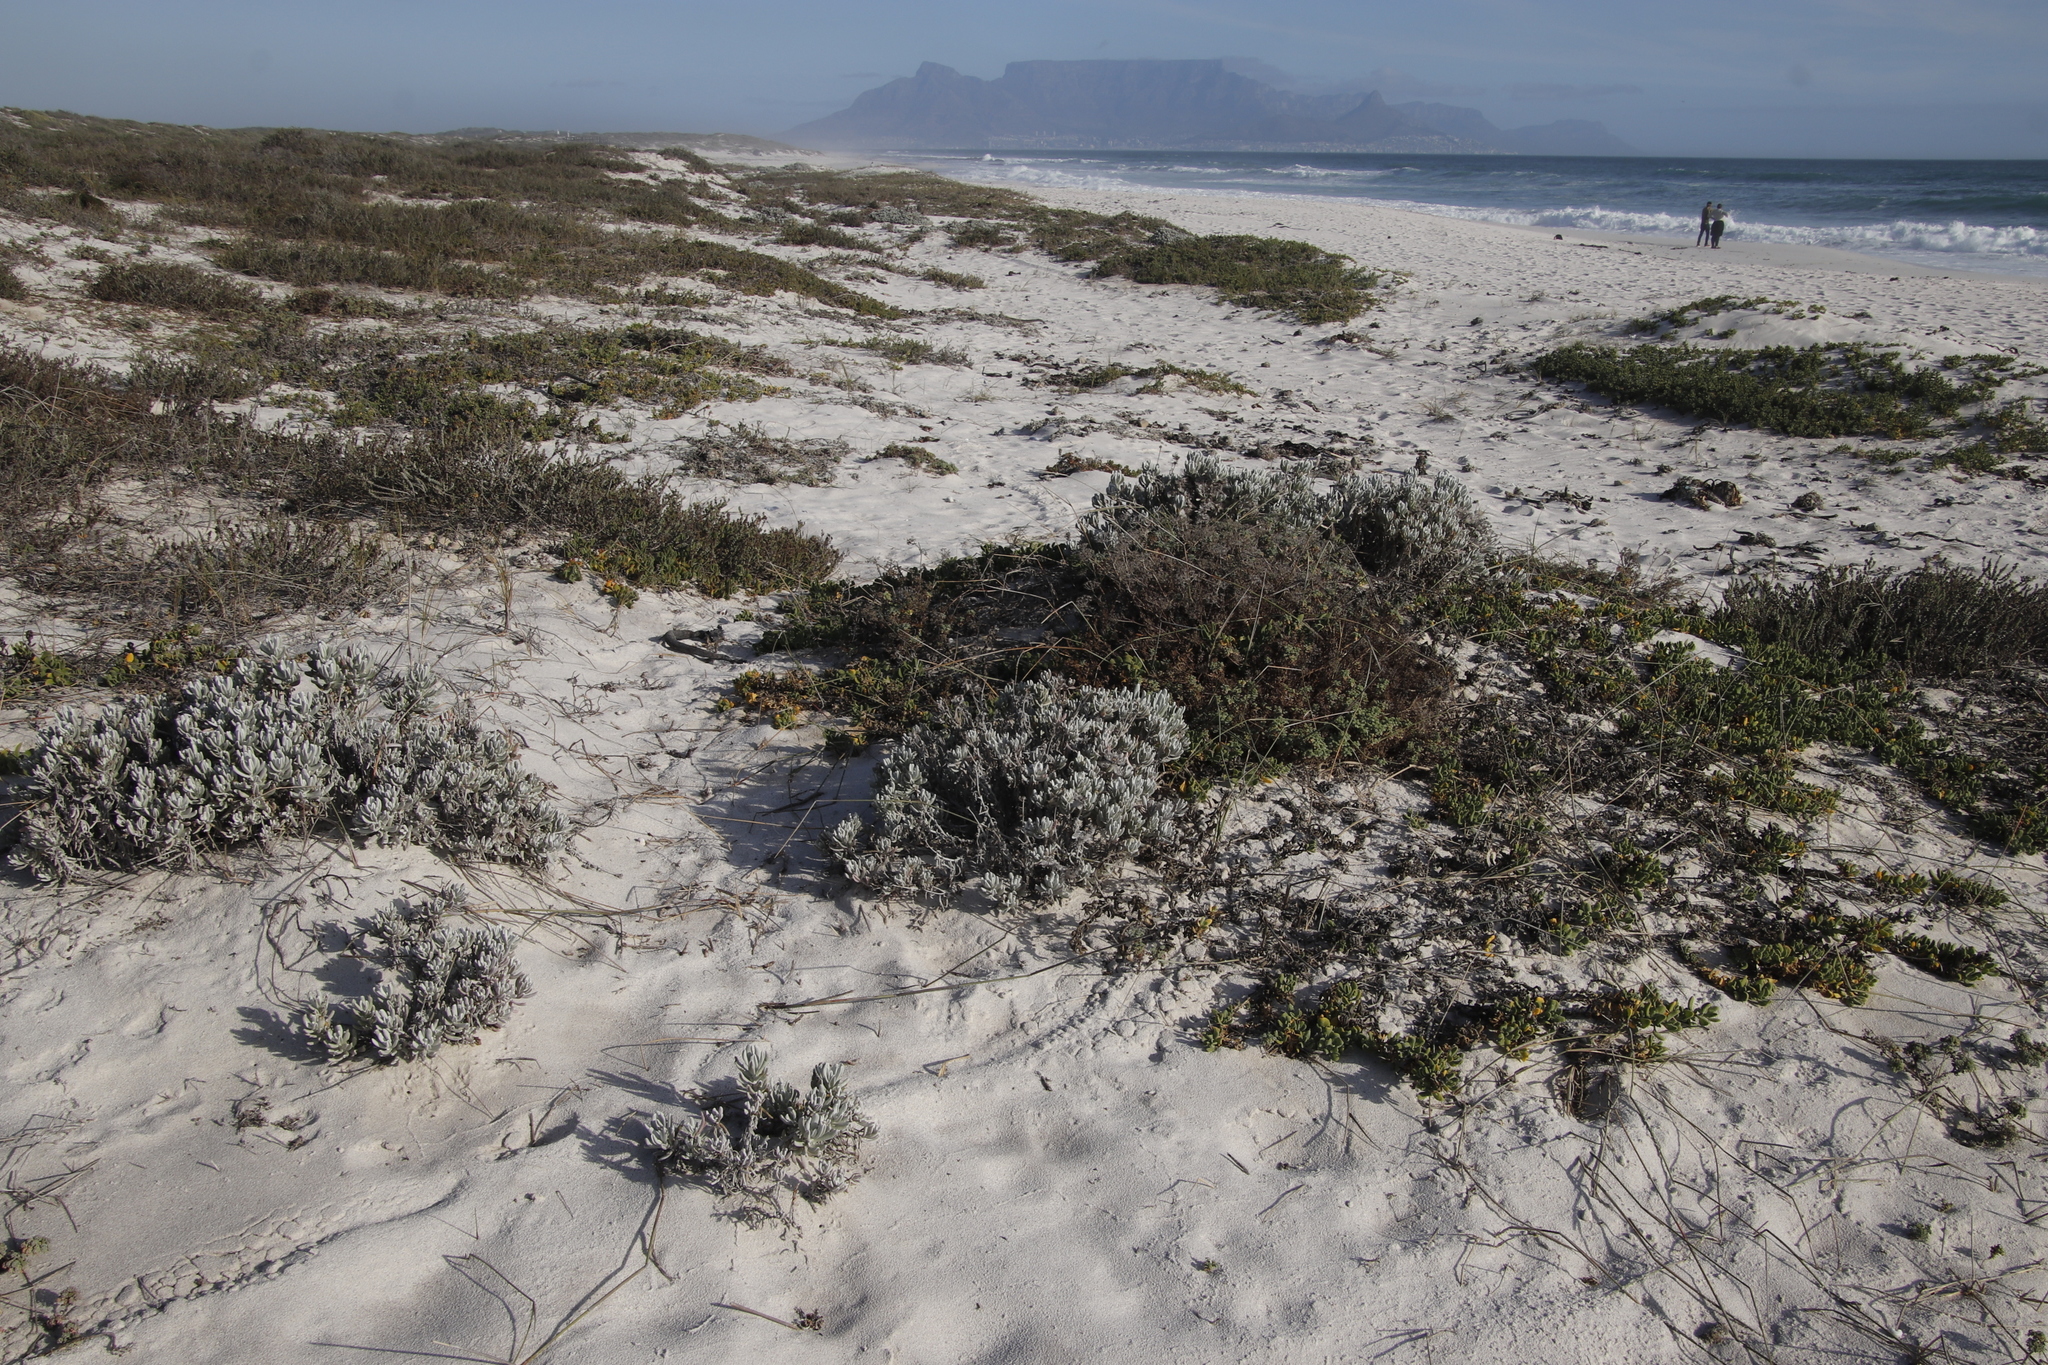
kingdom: Plantae
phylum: Tracheophyta
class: Magnoliopsida
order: Asterales
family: Asteraceae
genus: Didelta
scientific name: Didelta carnosa
